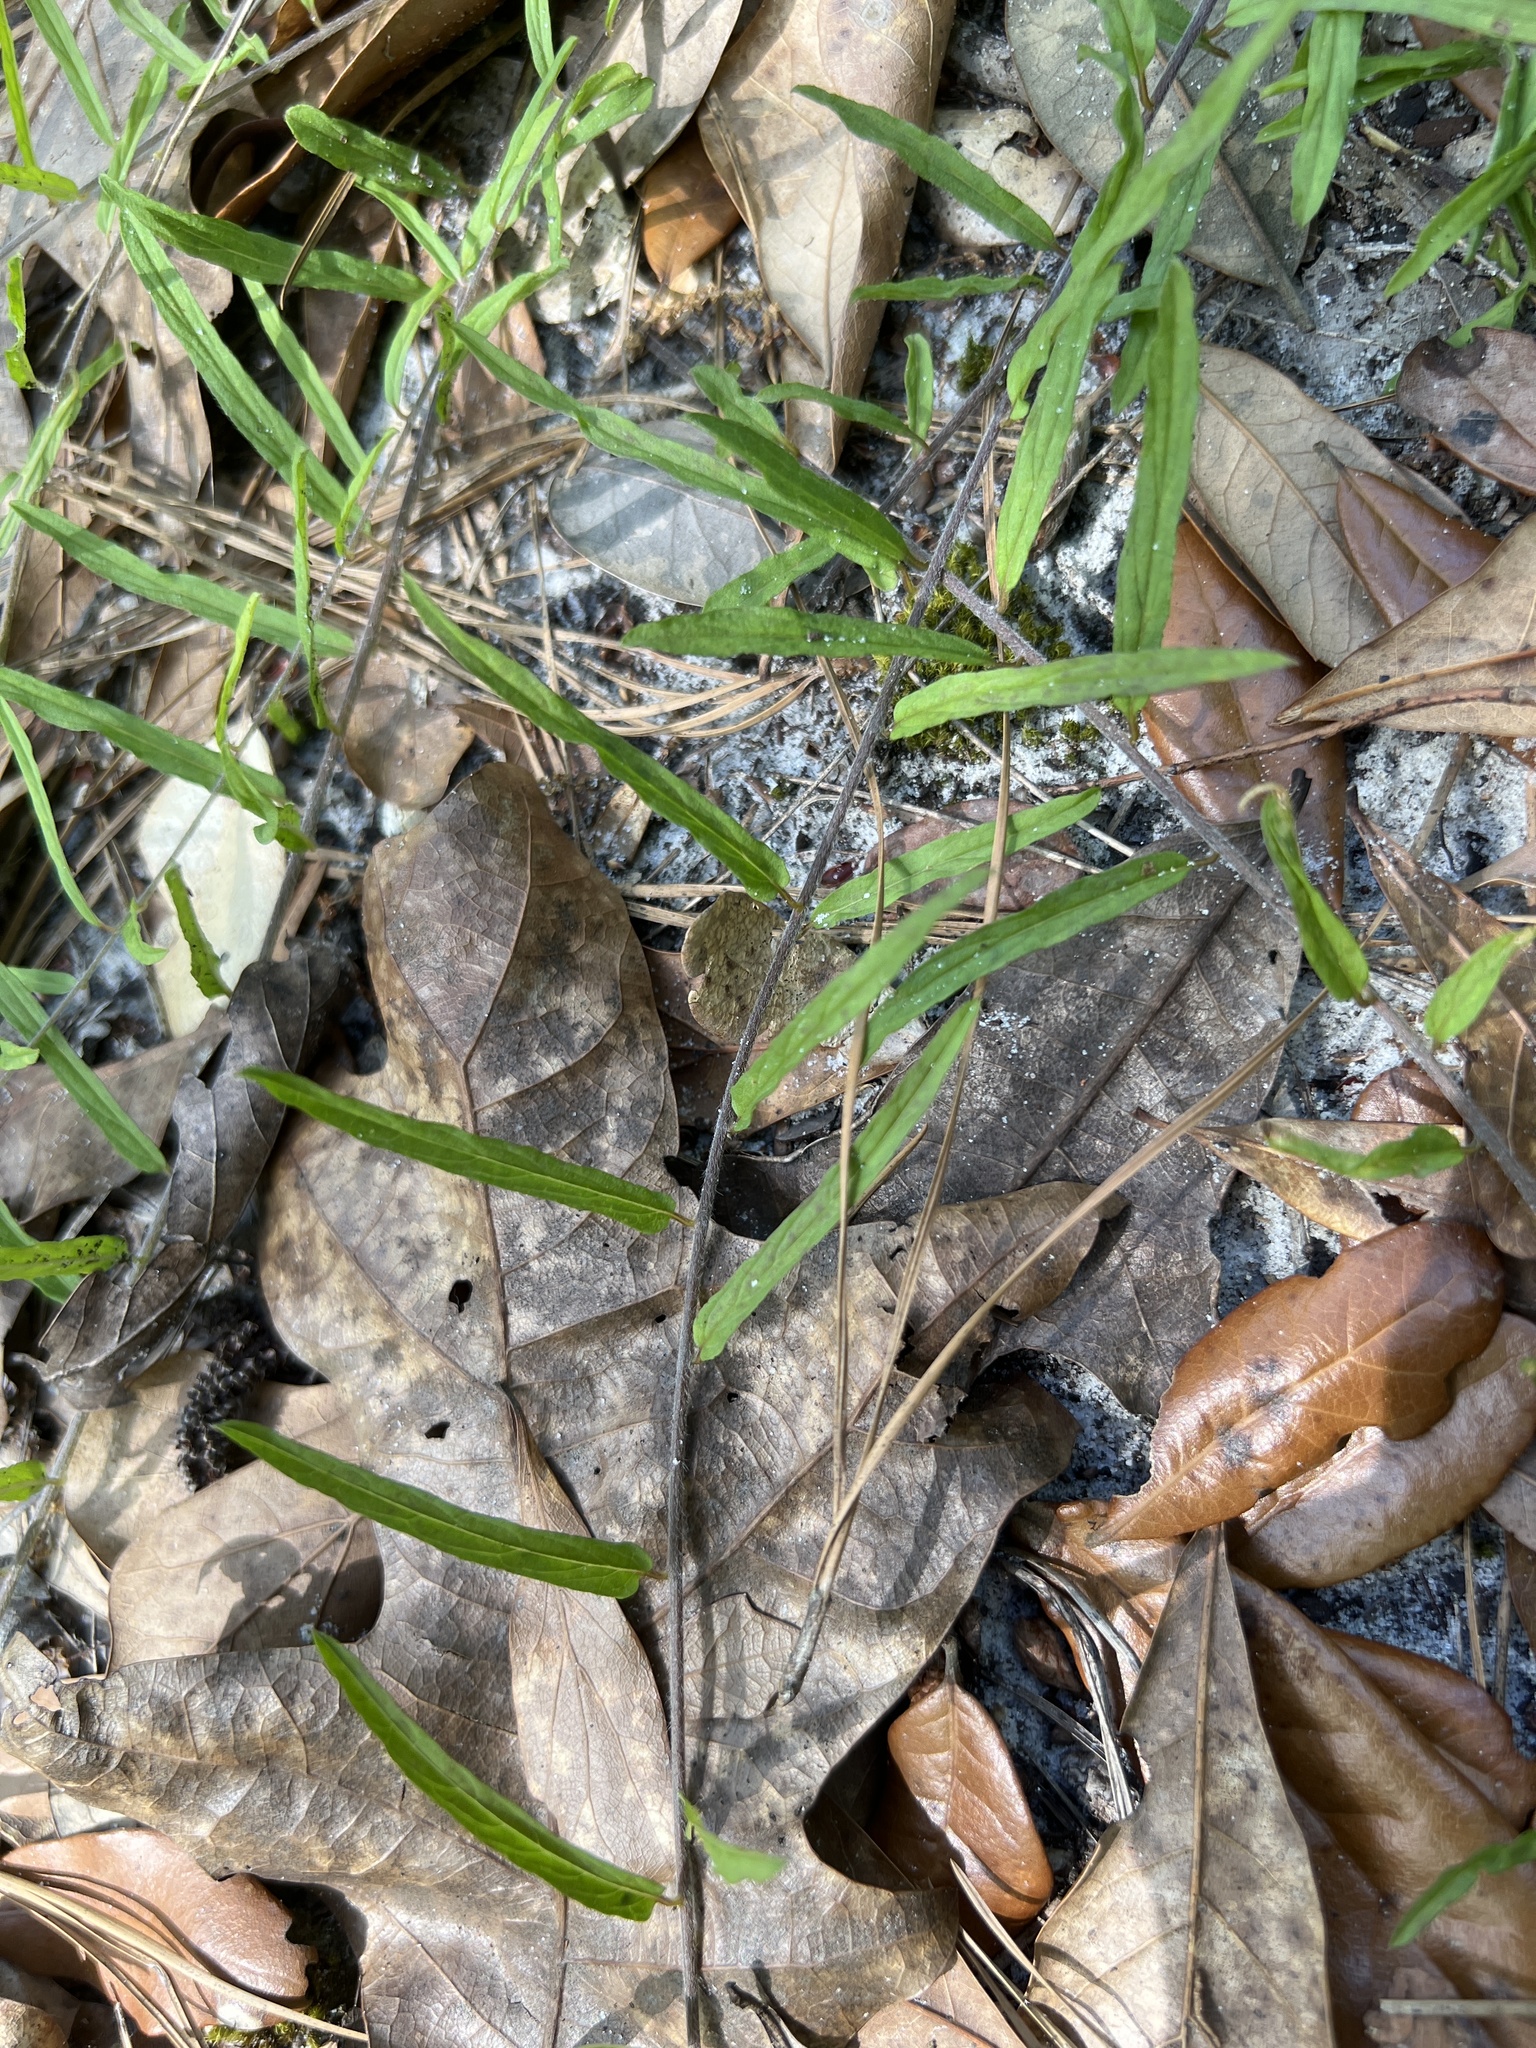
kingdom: Plantae
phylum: Tracheophyta
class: Magnoliopsida
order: Solanales
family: Convolvulaceae
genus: Stylisma
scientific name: Stylisma patens
